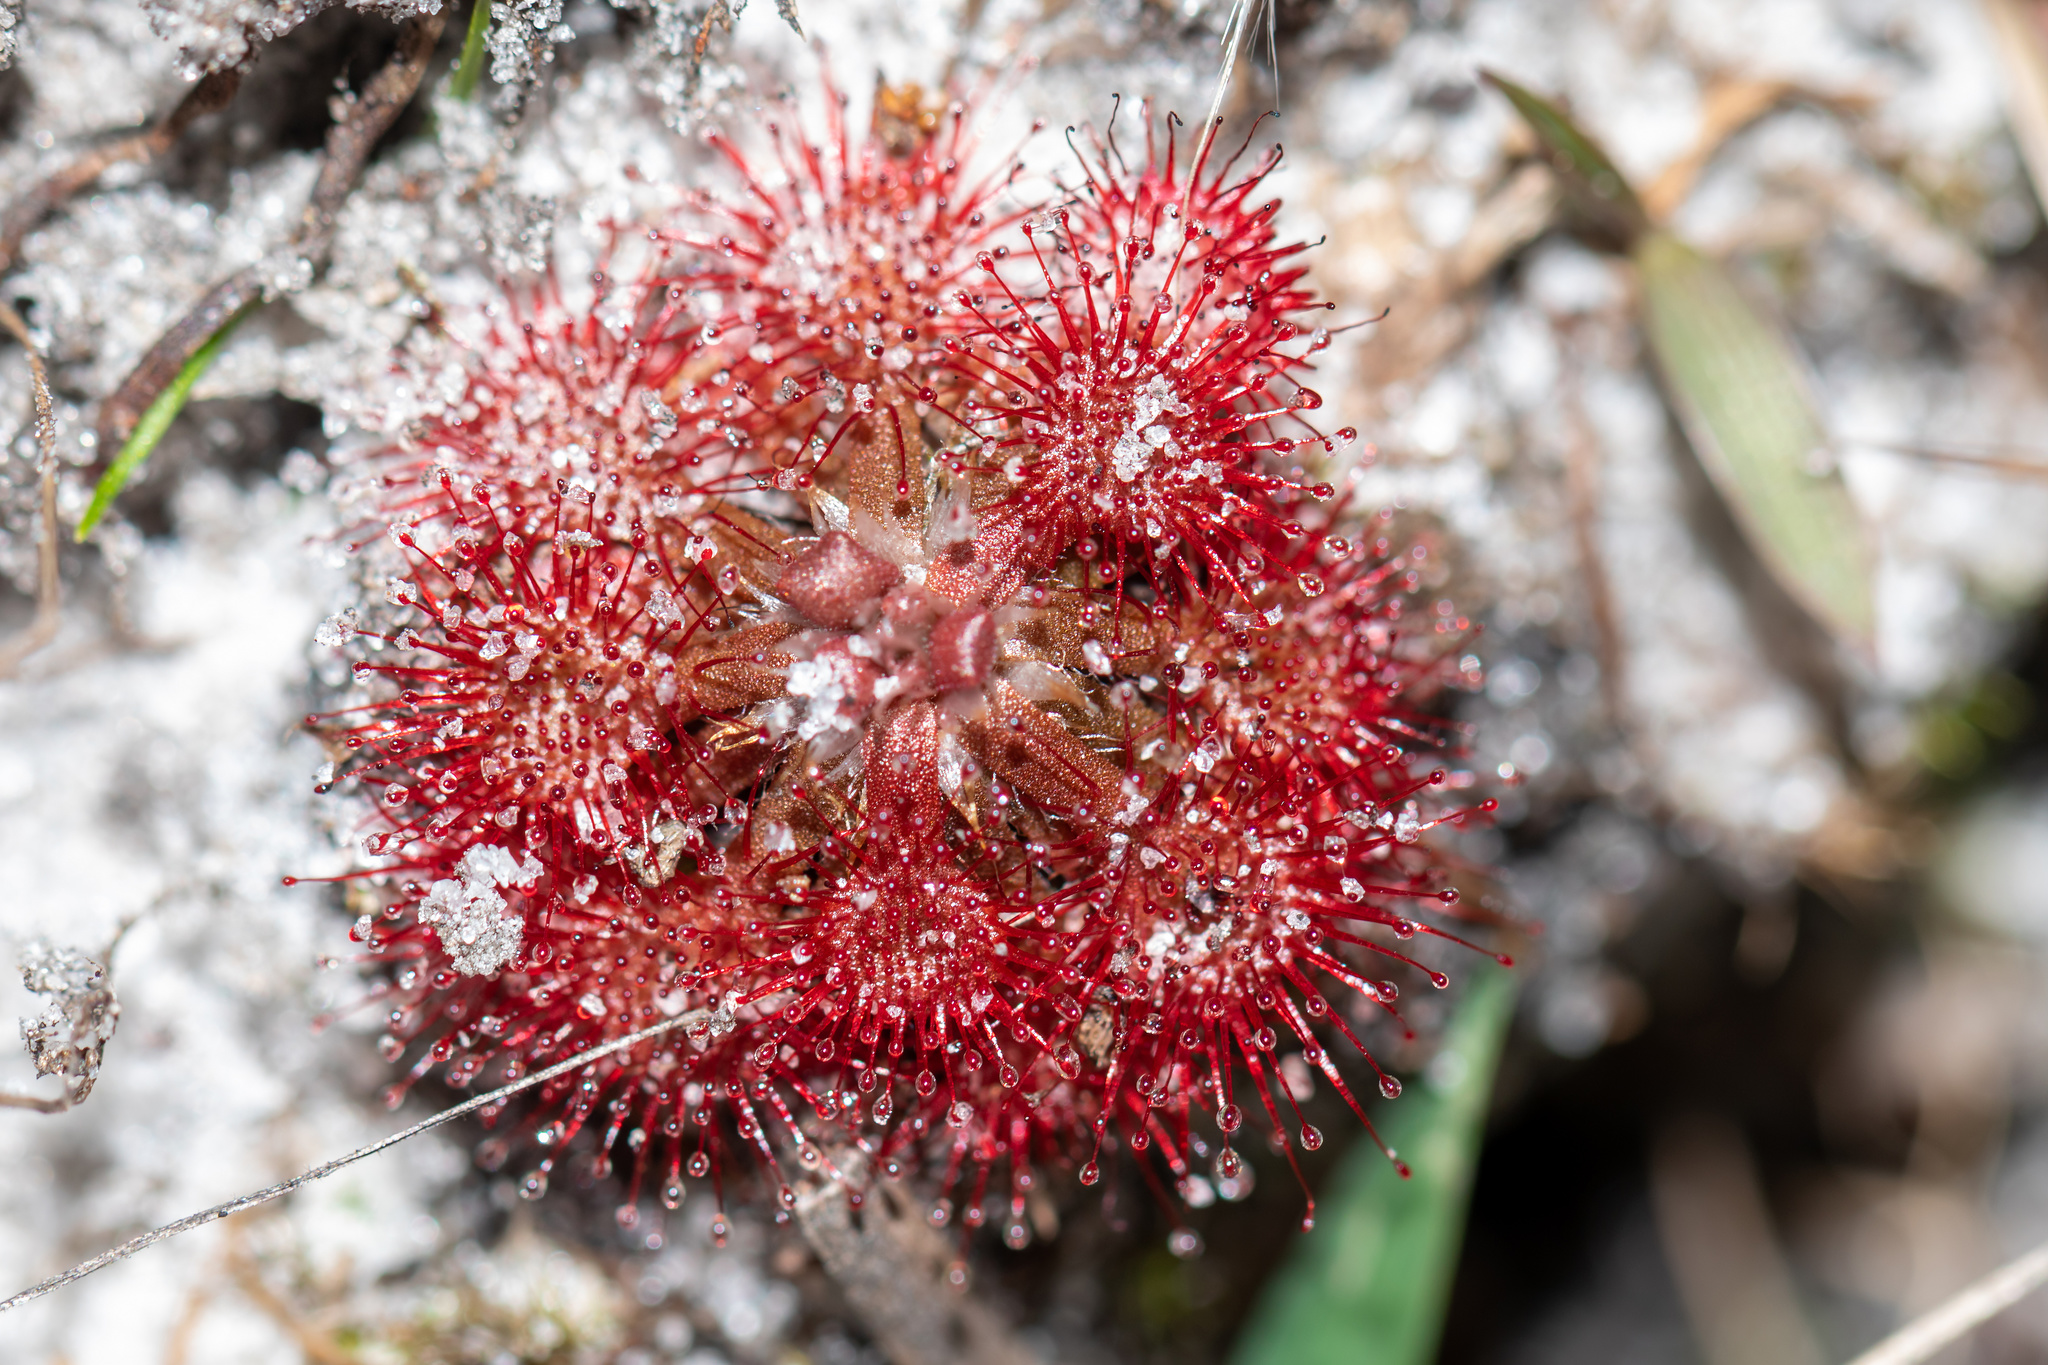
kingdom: Plantae
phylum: Tracheophyta
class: Magnoliopsida
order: Caryophyllales
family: Droseraceae
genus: Drosera
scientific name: Drosera capillaris
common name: Pink sundew
